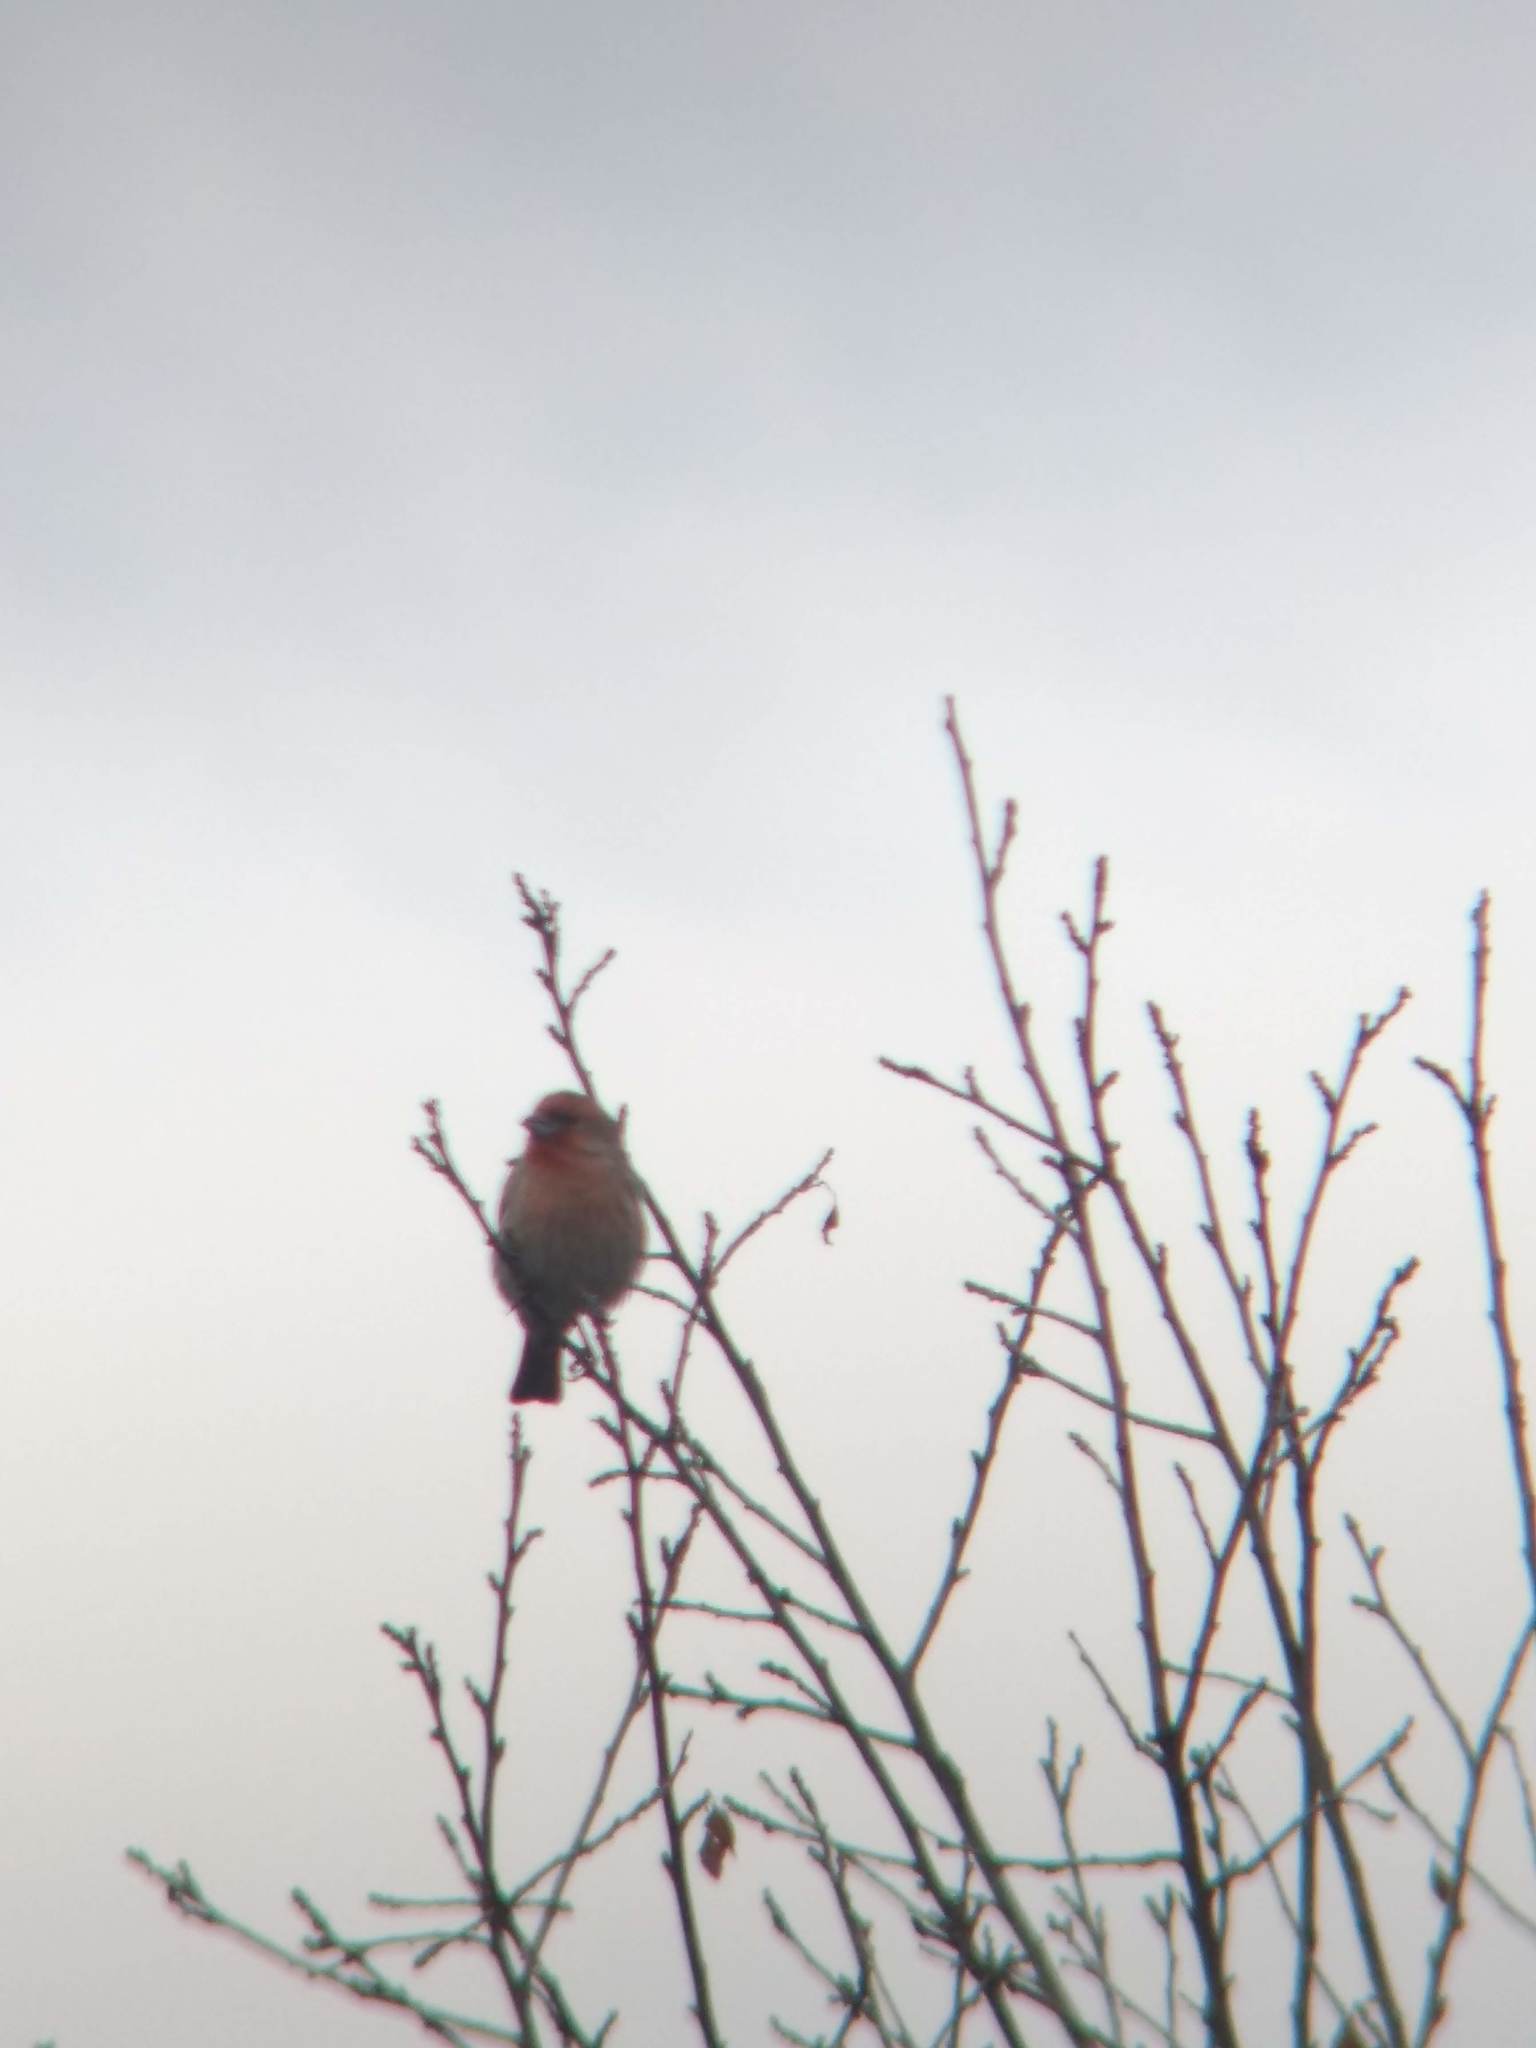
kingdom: Animalia
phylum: Chordata
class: Aves
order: Passeriformes
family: Fringillidae
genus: Haemorhous
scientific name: Haemorhous mexicanus
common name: House finch
